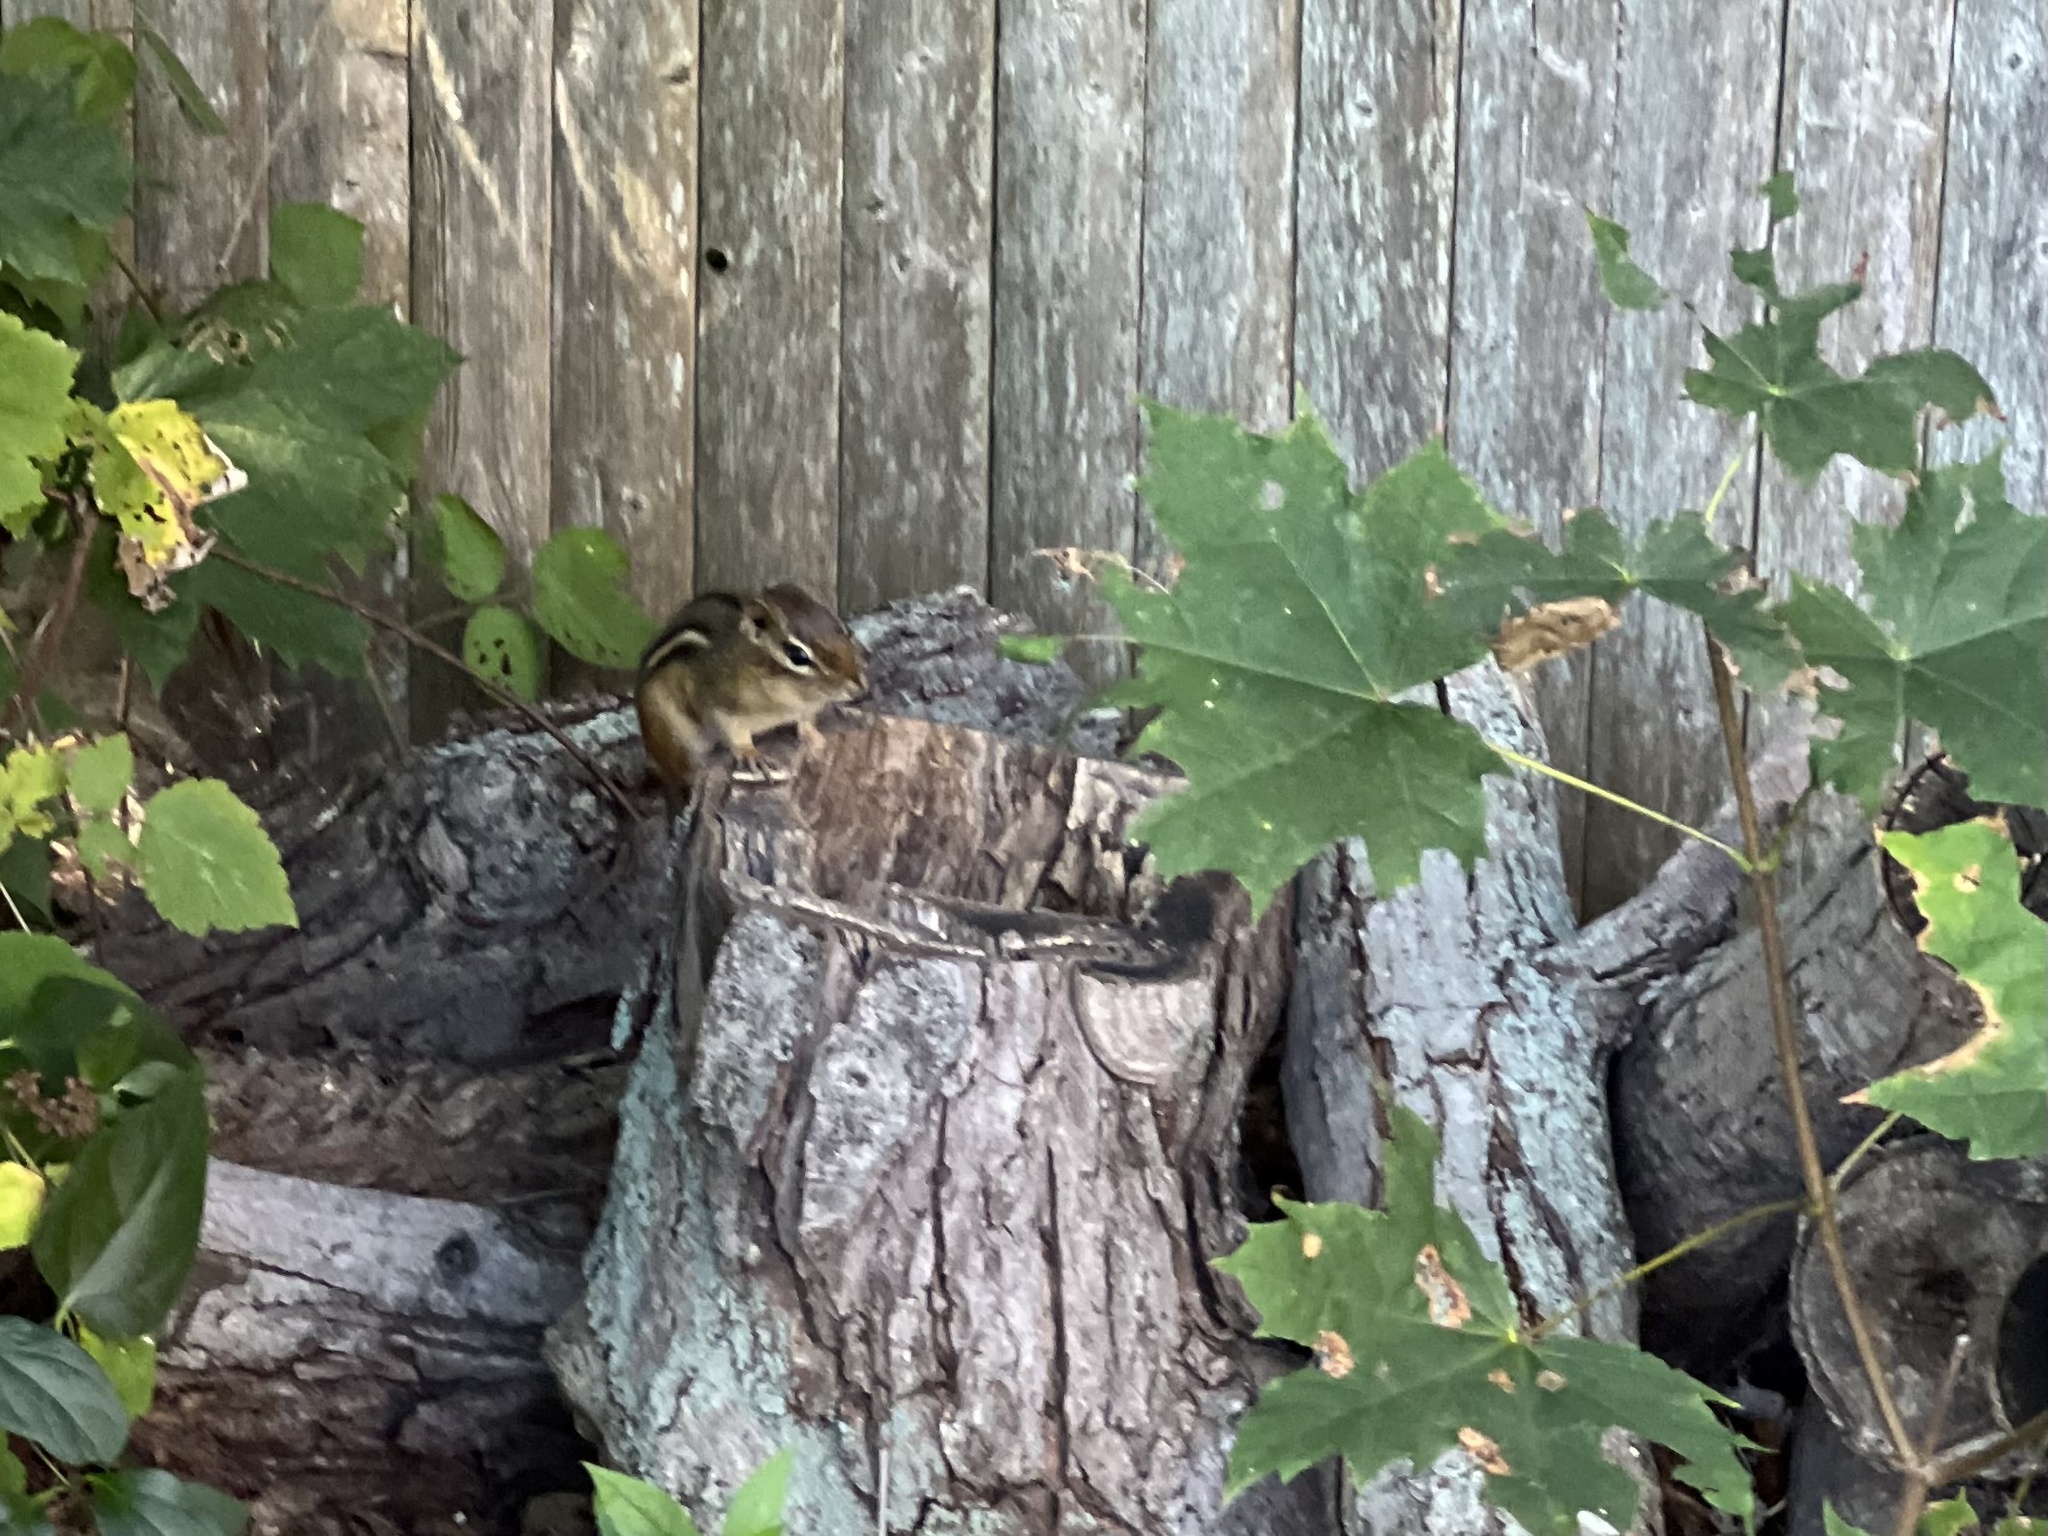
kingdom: Animalia
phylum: Chordata
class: Mammalia
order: Rodentia
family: Sciuridae
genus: Tamias
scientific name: Tamias striatus
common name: Eastern chipmunk
